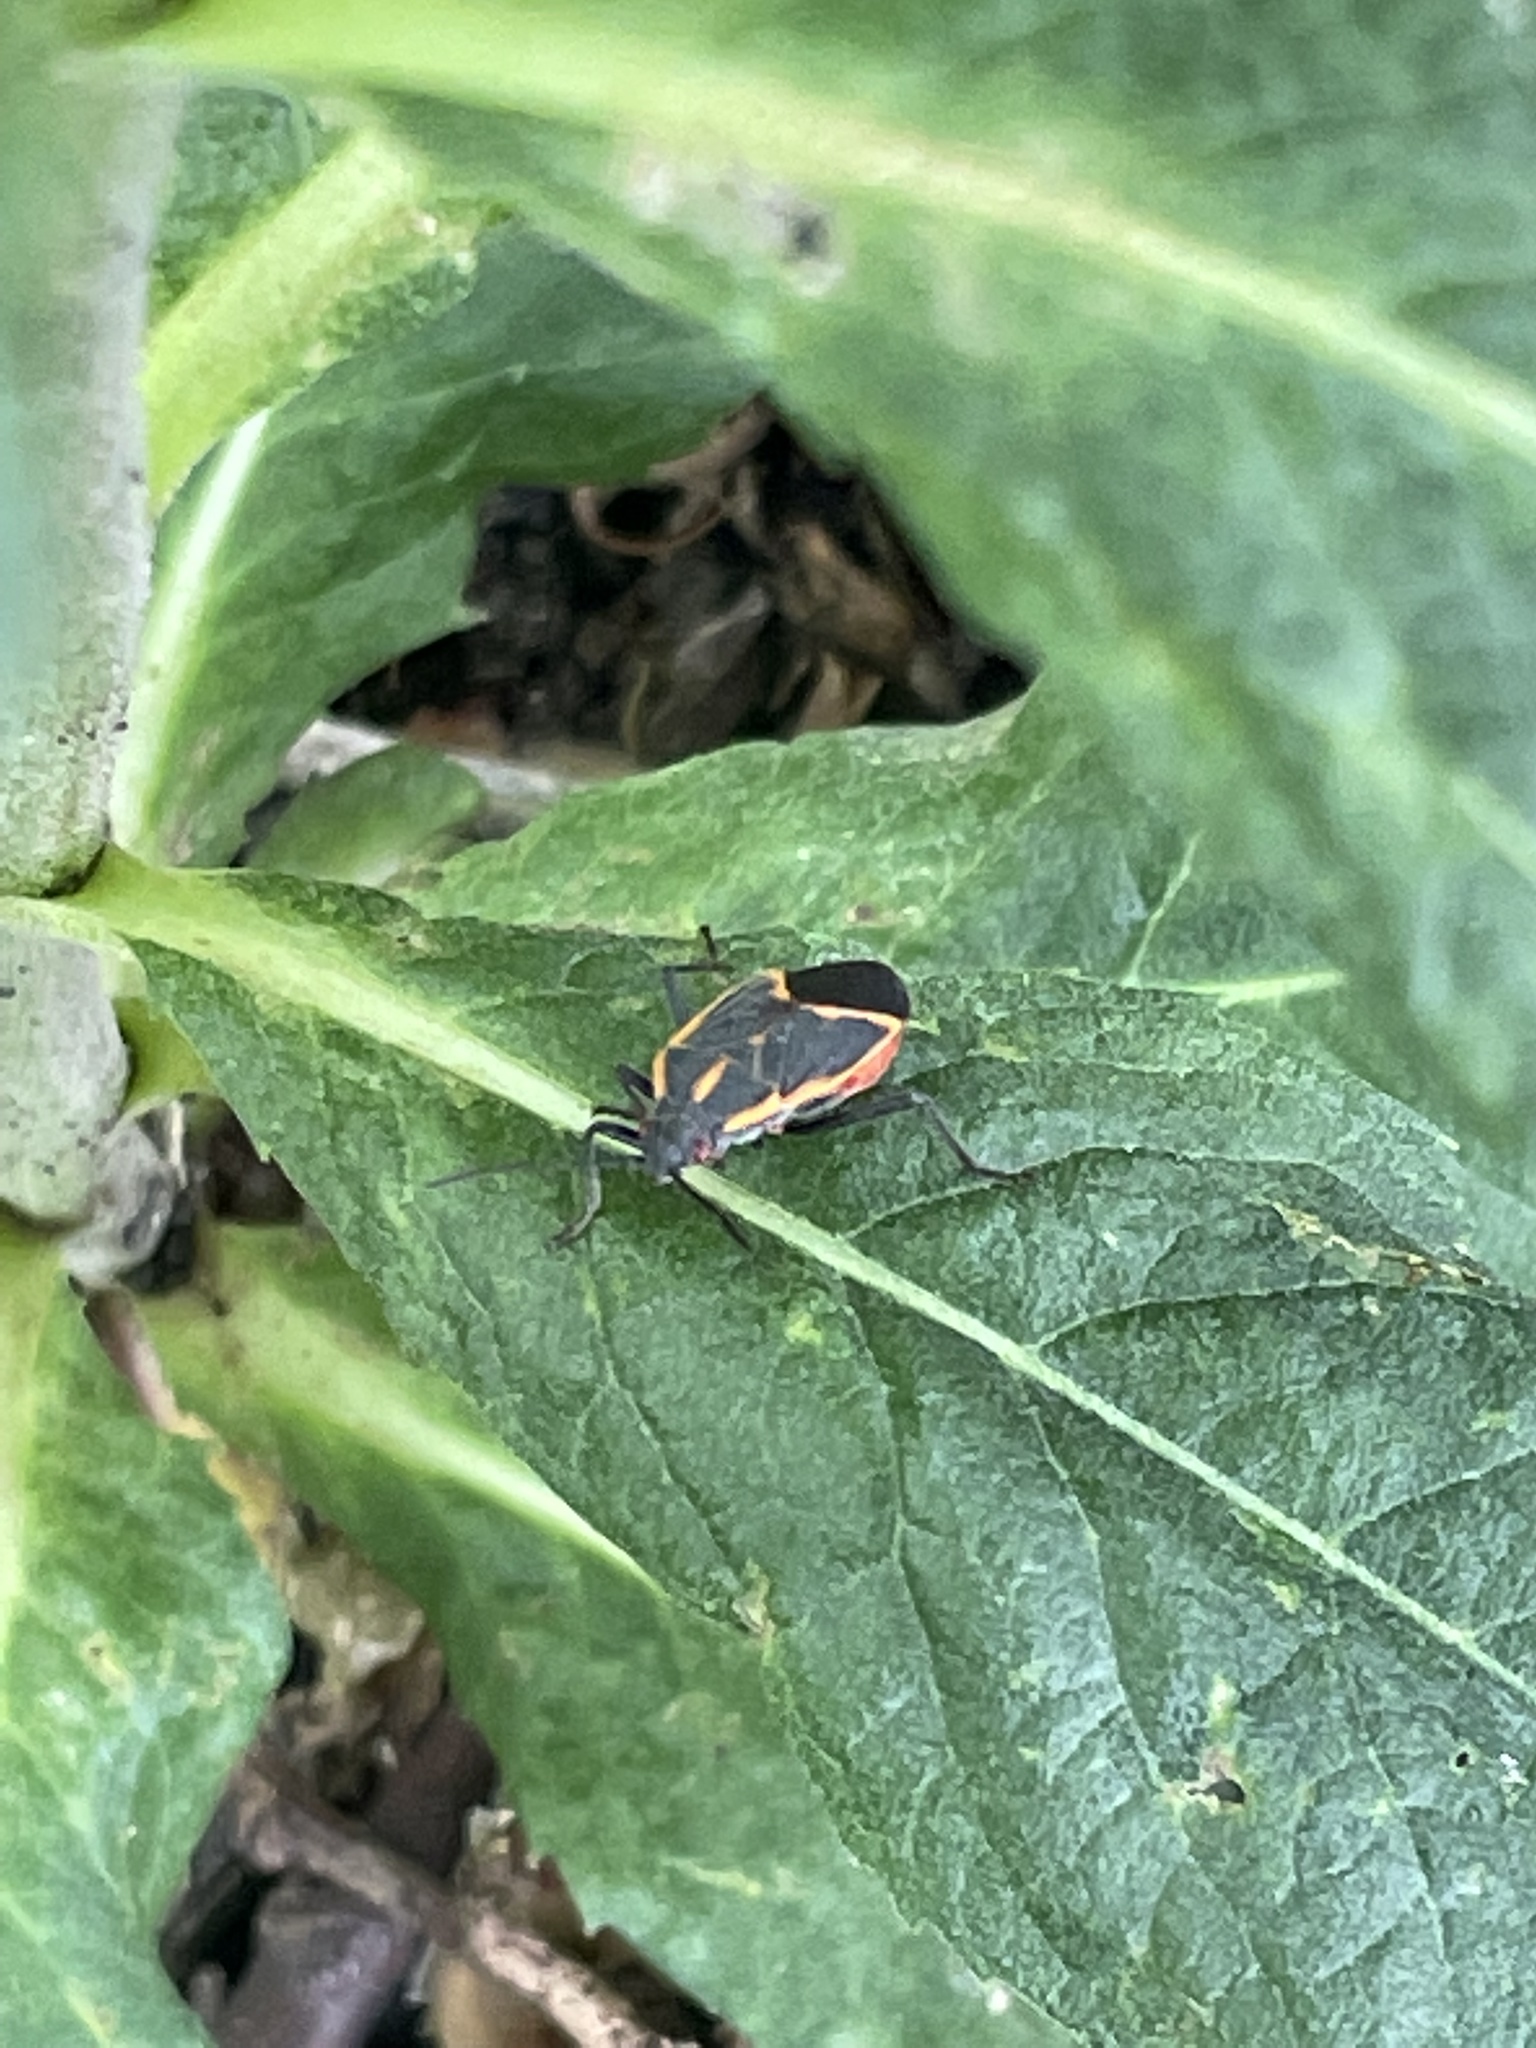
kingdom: Animalia
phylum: Arthropoda
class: Insecta
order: Hemiptera
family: Rhopalidae
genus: Boisea
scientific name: Boisea trivittata
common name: Boxelder bug
